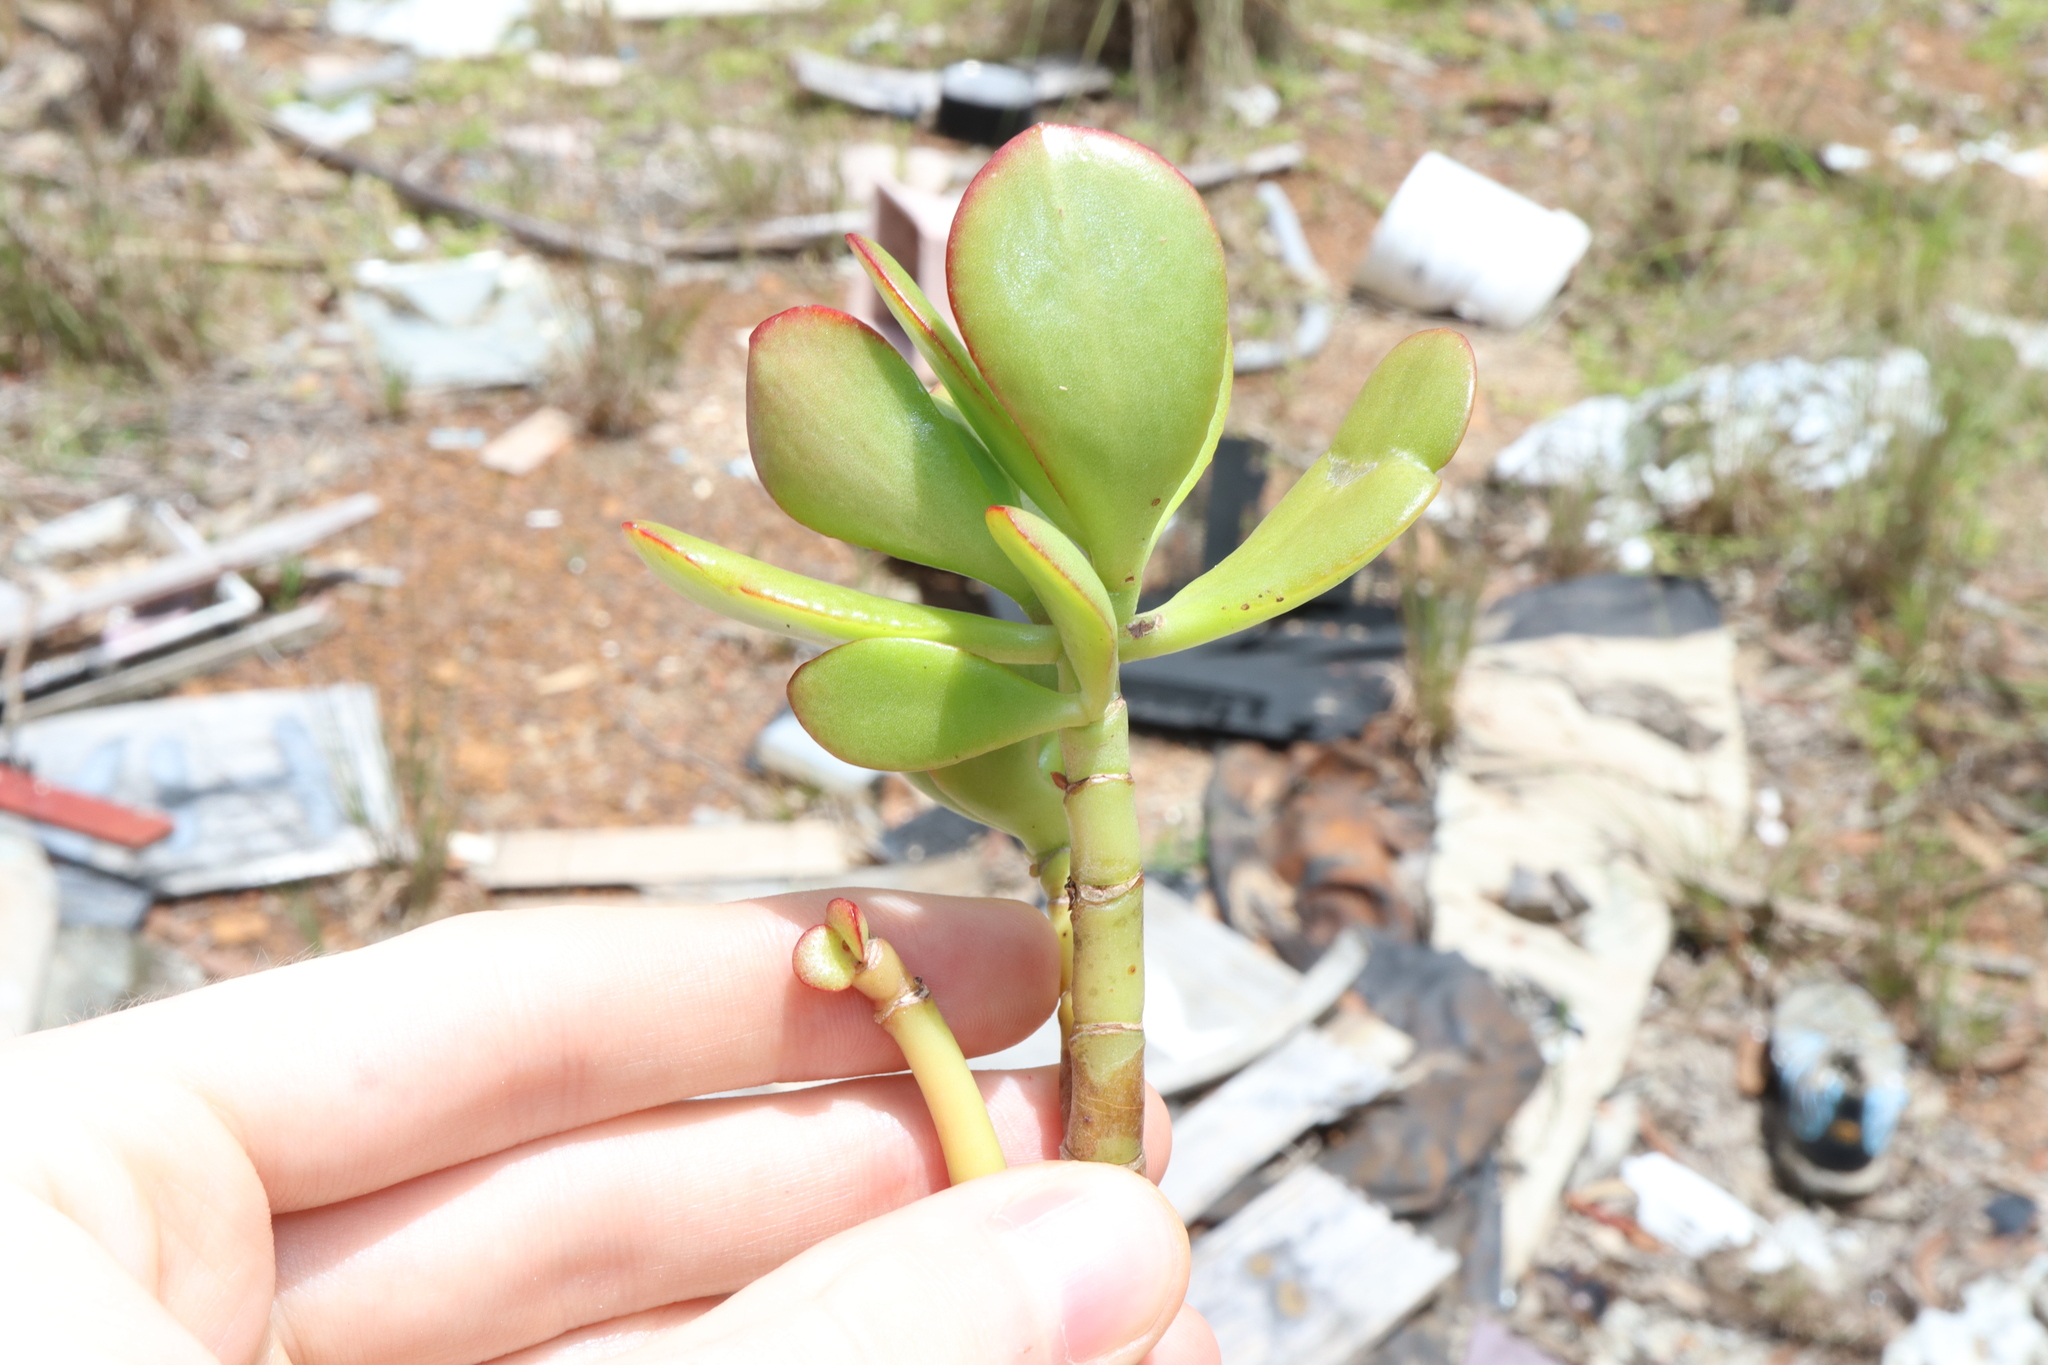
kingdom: Plantae
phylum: Tracheophyta
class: Magnoliopsida
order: Saxifragales
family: Crassulaceae
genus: Crassula
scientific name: Crassula ovata
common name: Jade plant
